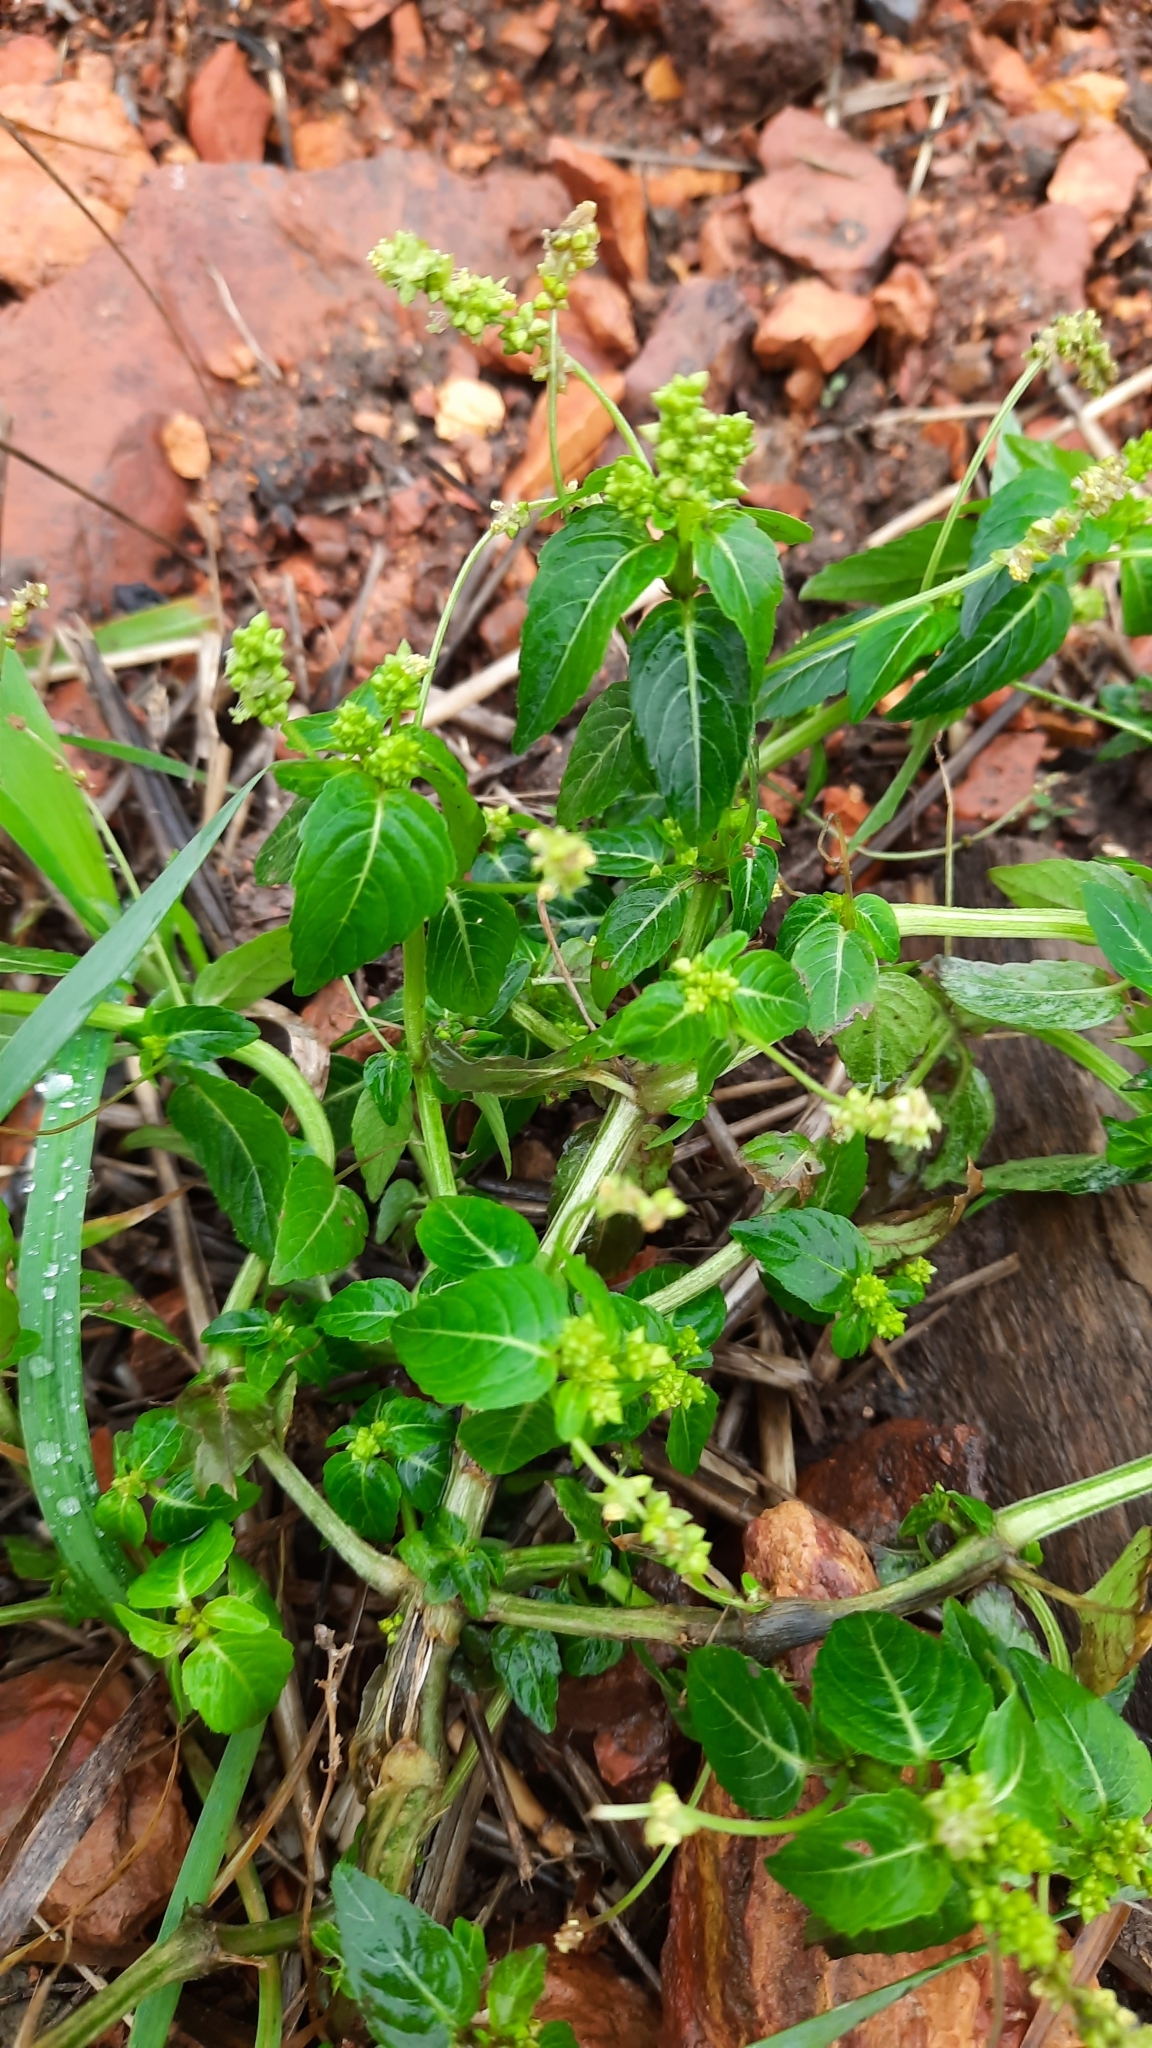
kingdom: Plantae
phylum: Tracheophyta
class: Magnoliopsida
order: Malpighiales
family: Euphorbiaceae
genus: Mercurialis
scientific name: Mercurialis annua
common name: Annual mercury
